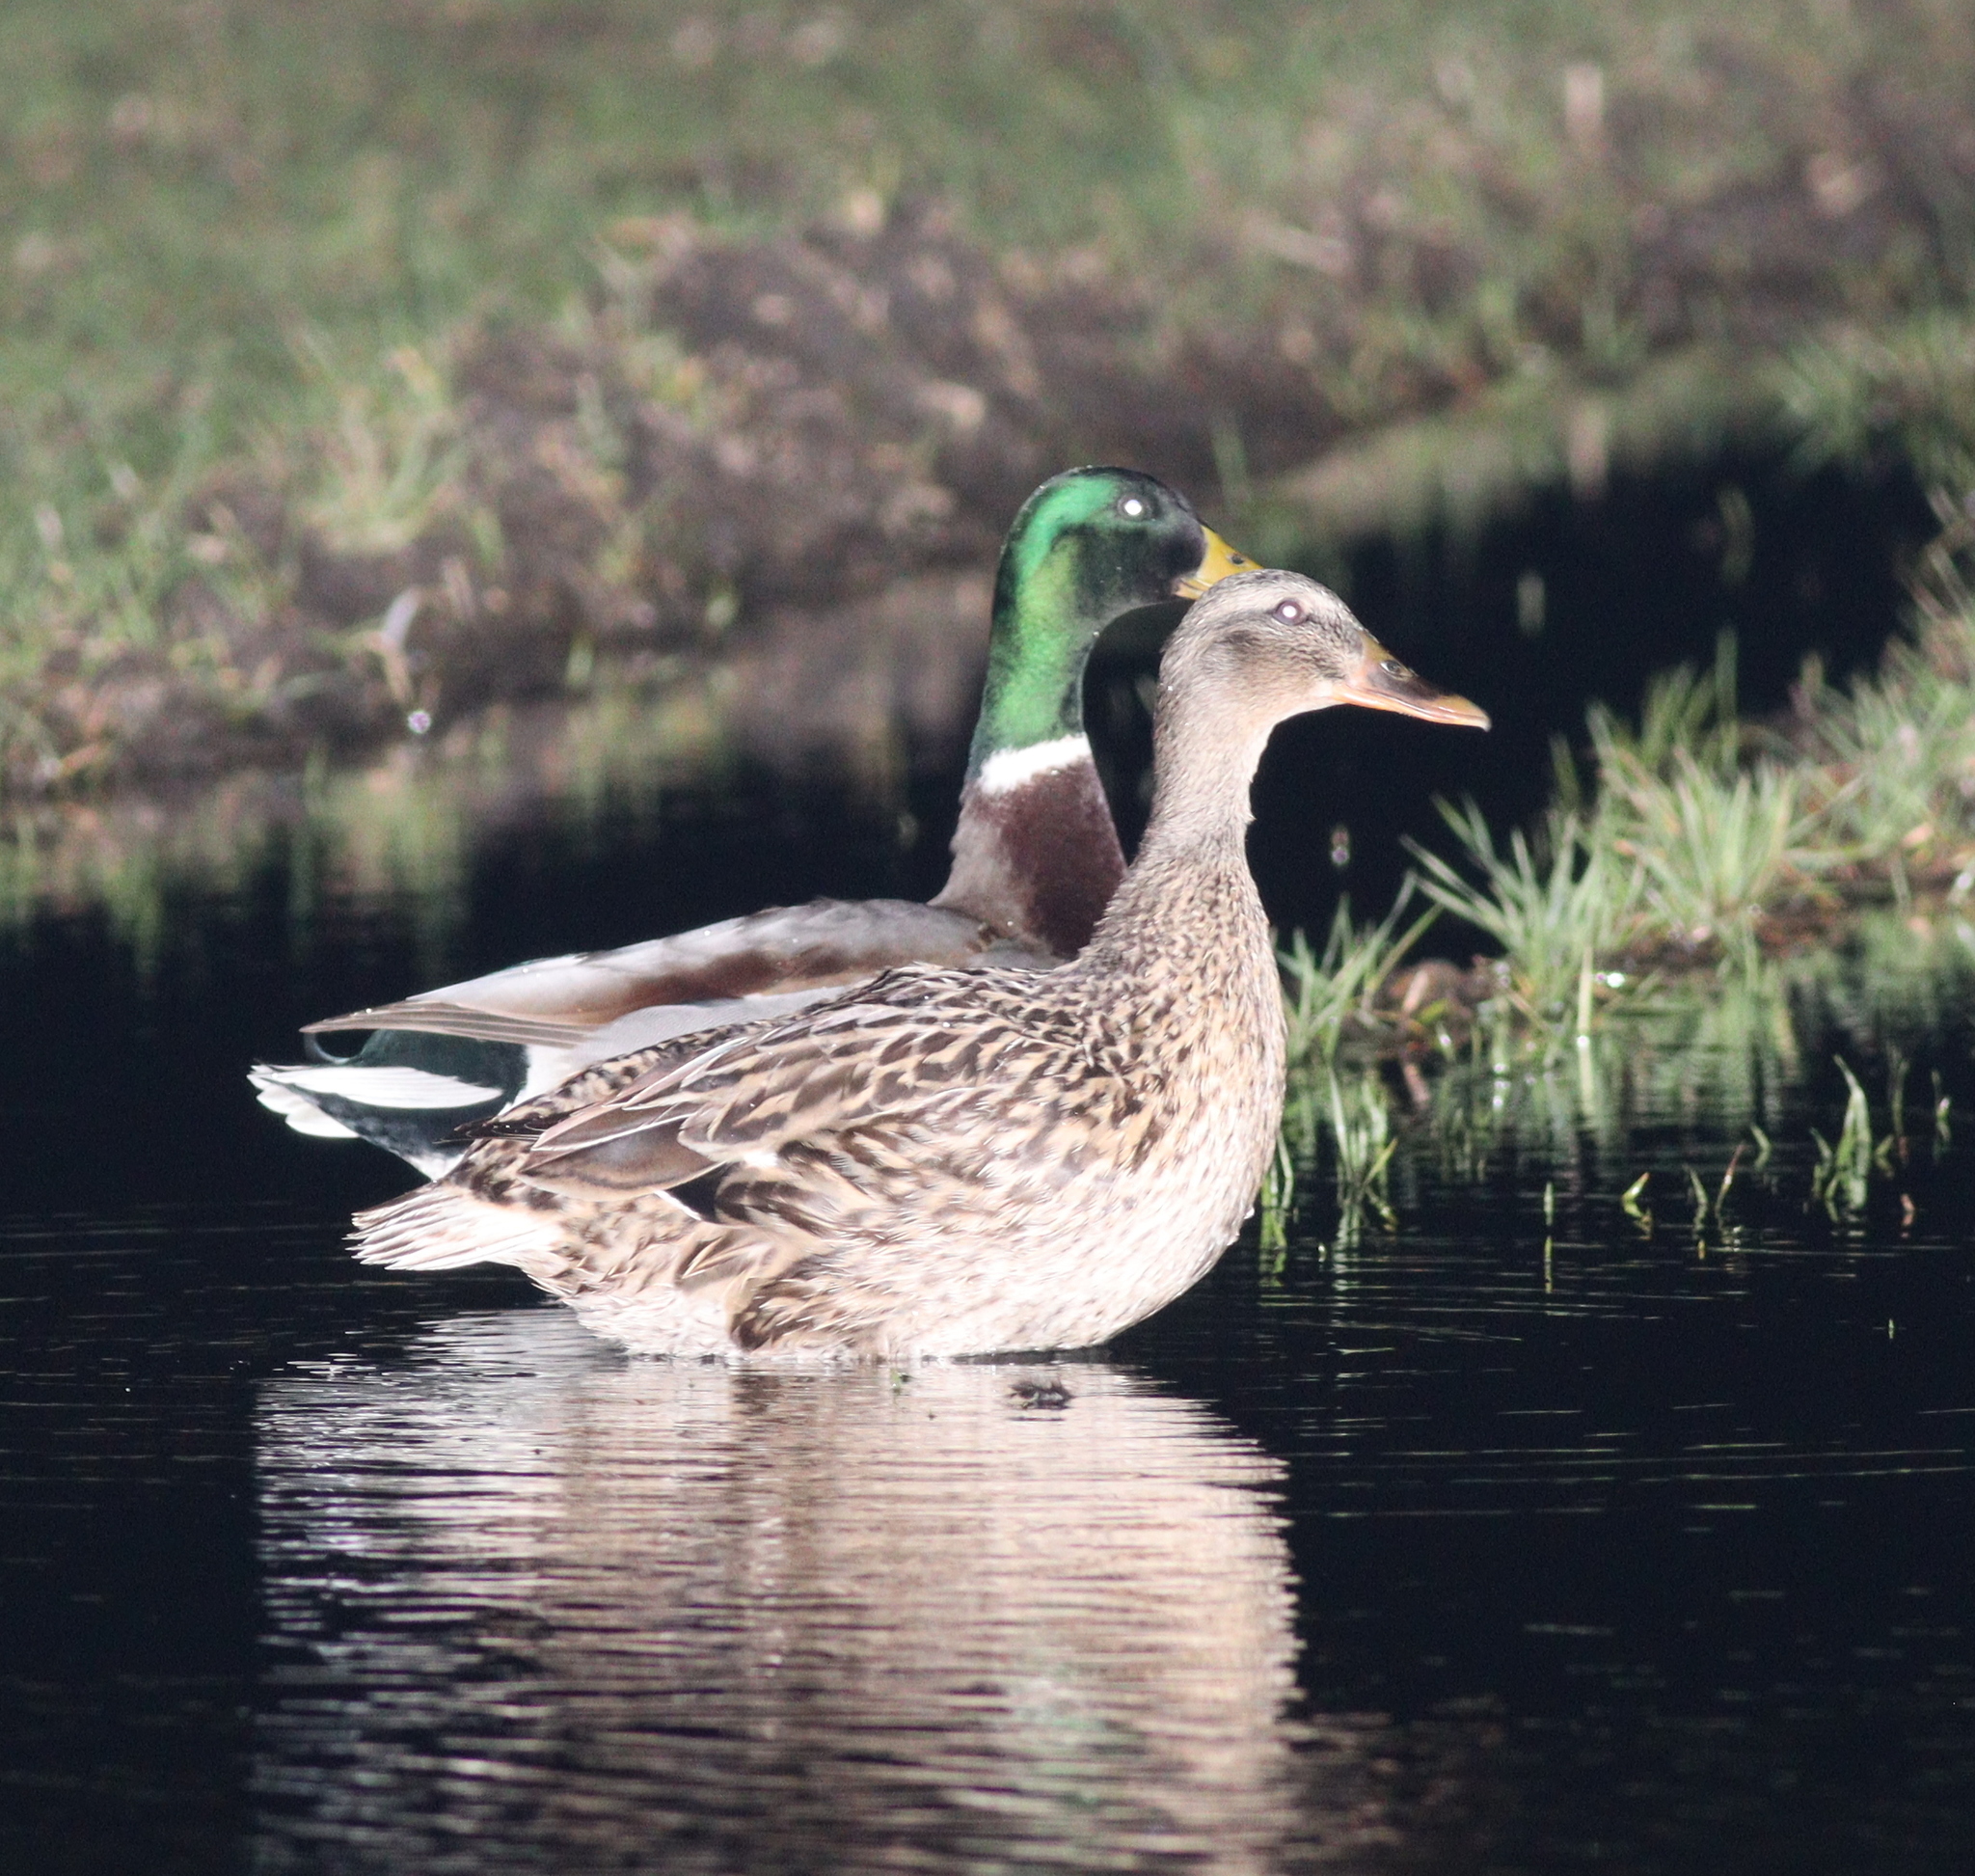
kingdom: Animalia
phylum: Chordata
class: Aves
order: Anseriformes
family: Anatidae
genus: Anas
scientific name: Anas platyrhynchos
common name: Mallard
